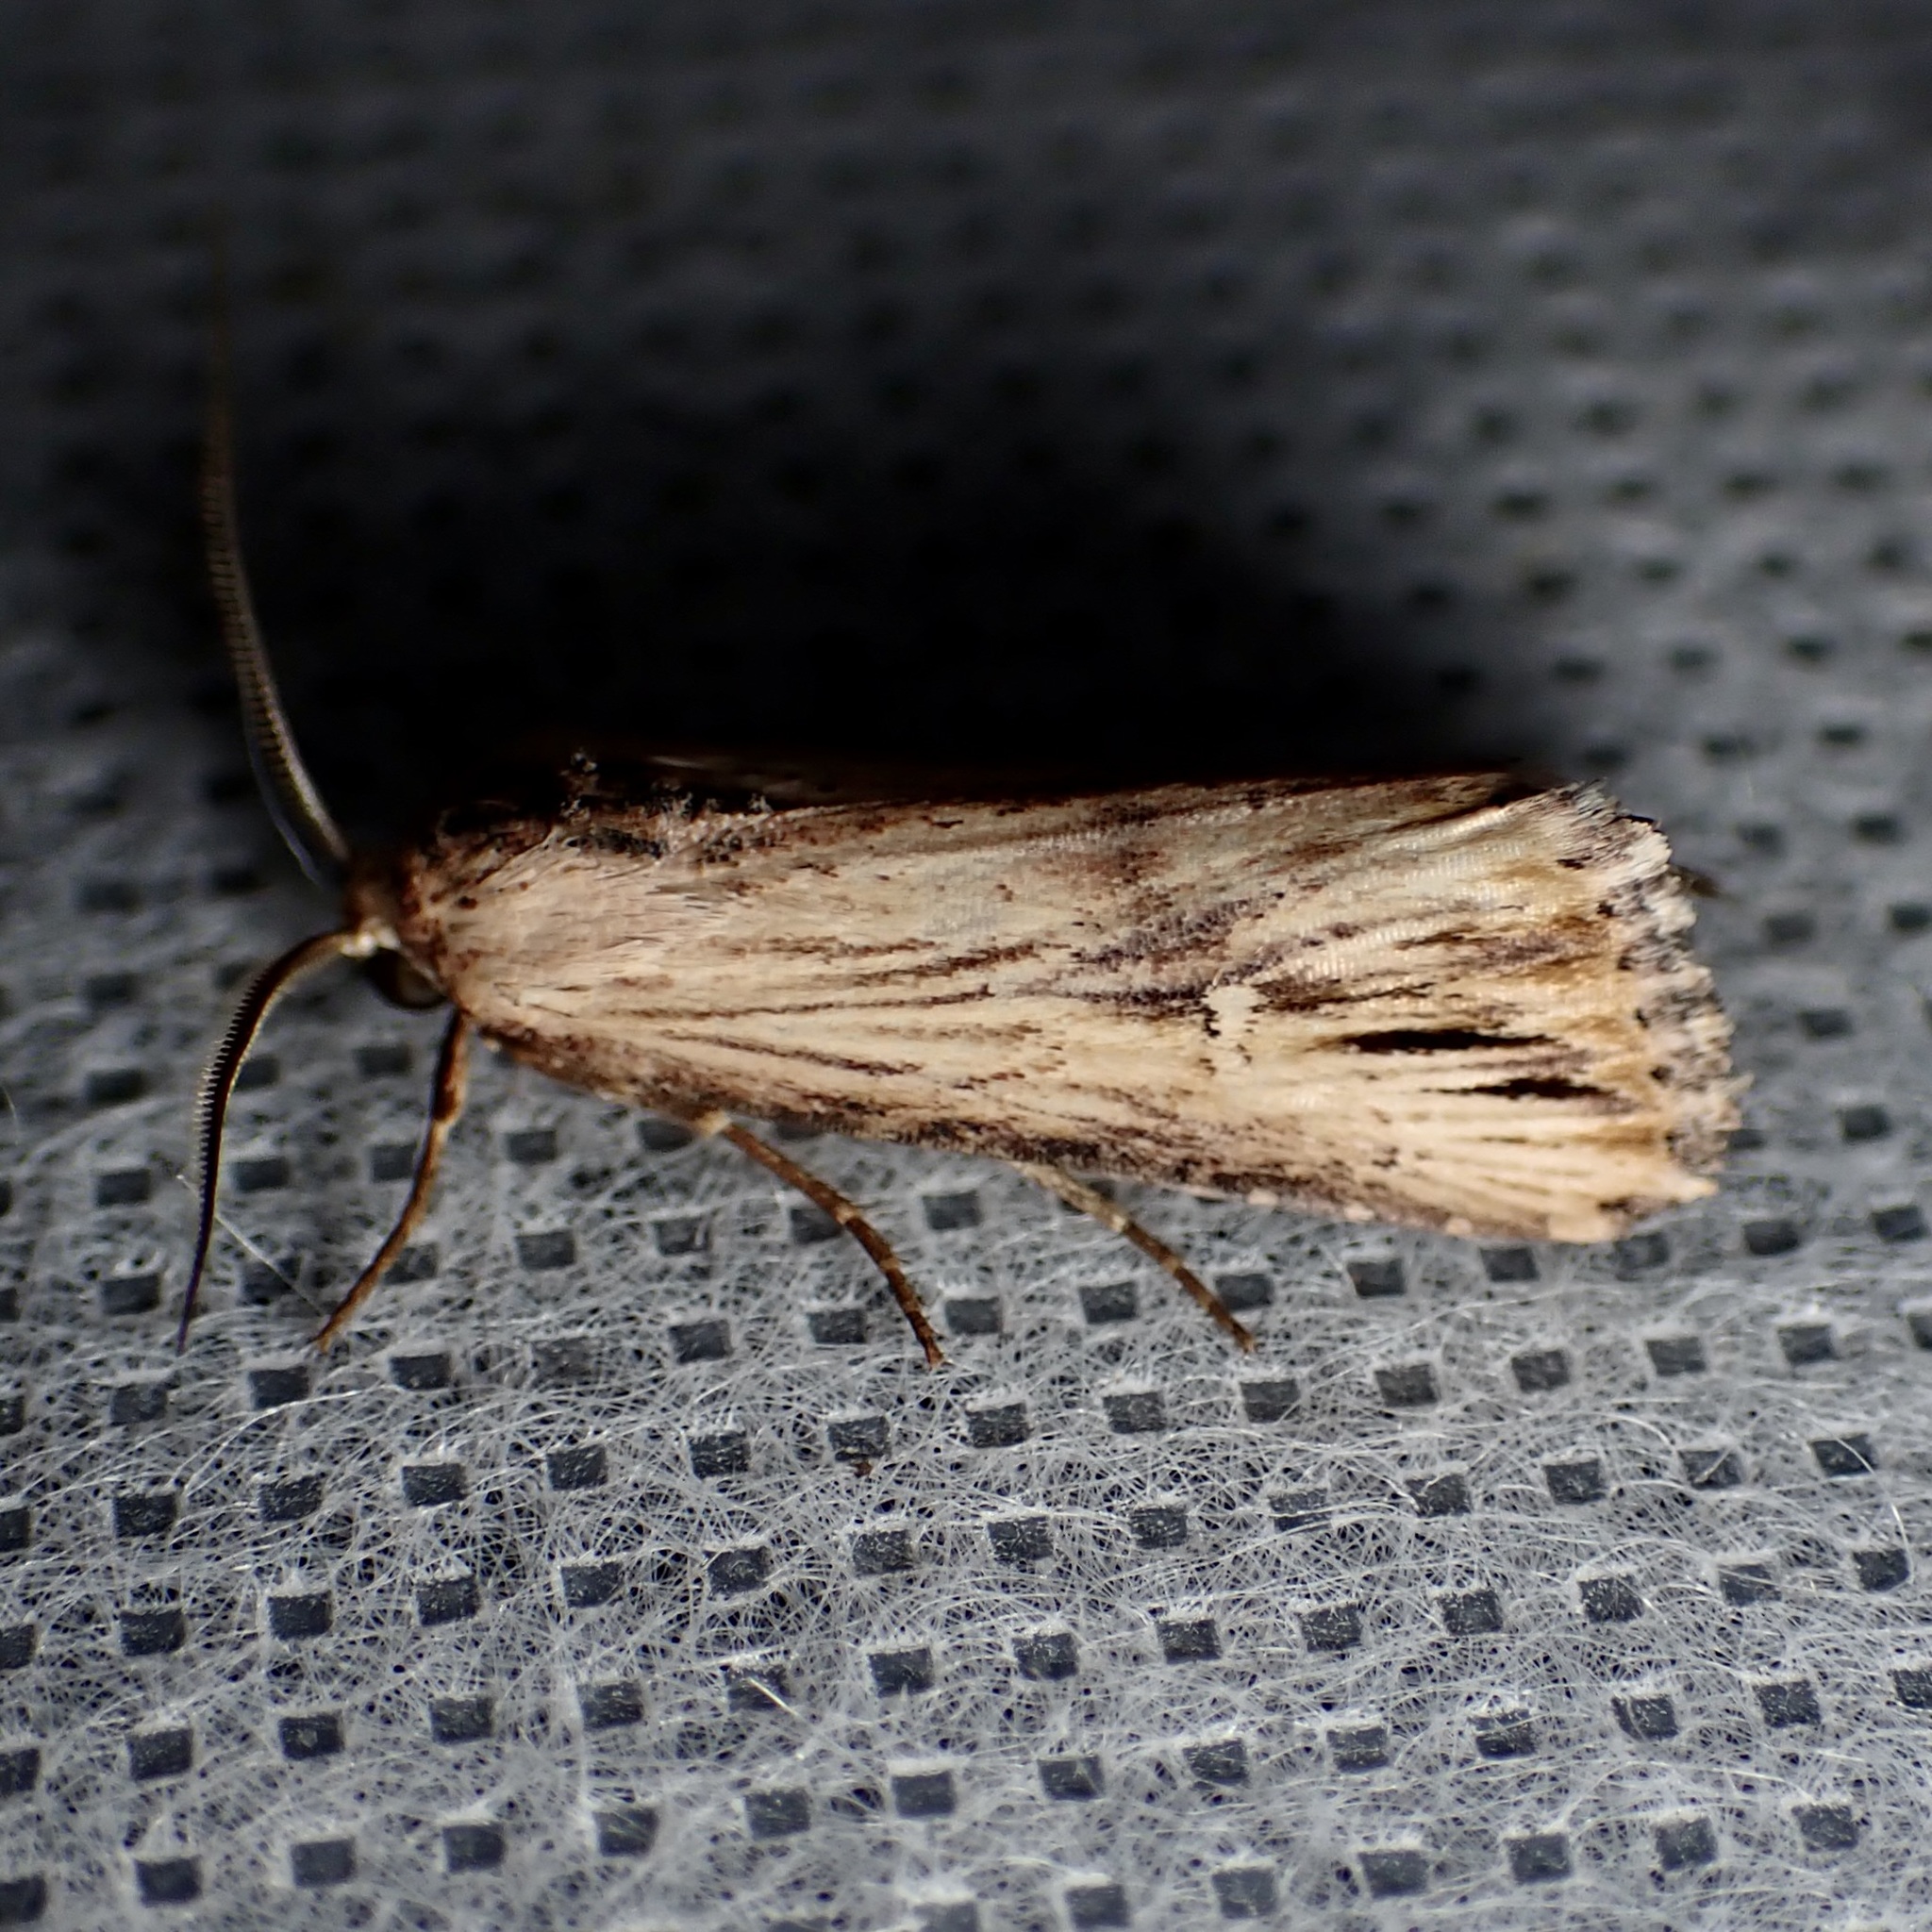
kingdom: Animalia
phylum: Arthropoda
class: Insecta
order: Lepidoptera
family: Noctuidae
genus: Crambodes
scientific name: Crambodes talidiformis
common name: Verbena moth
